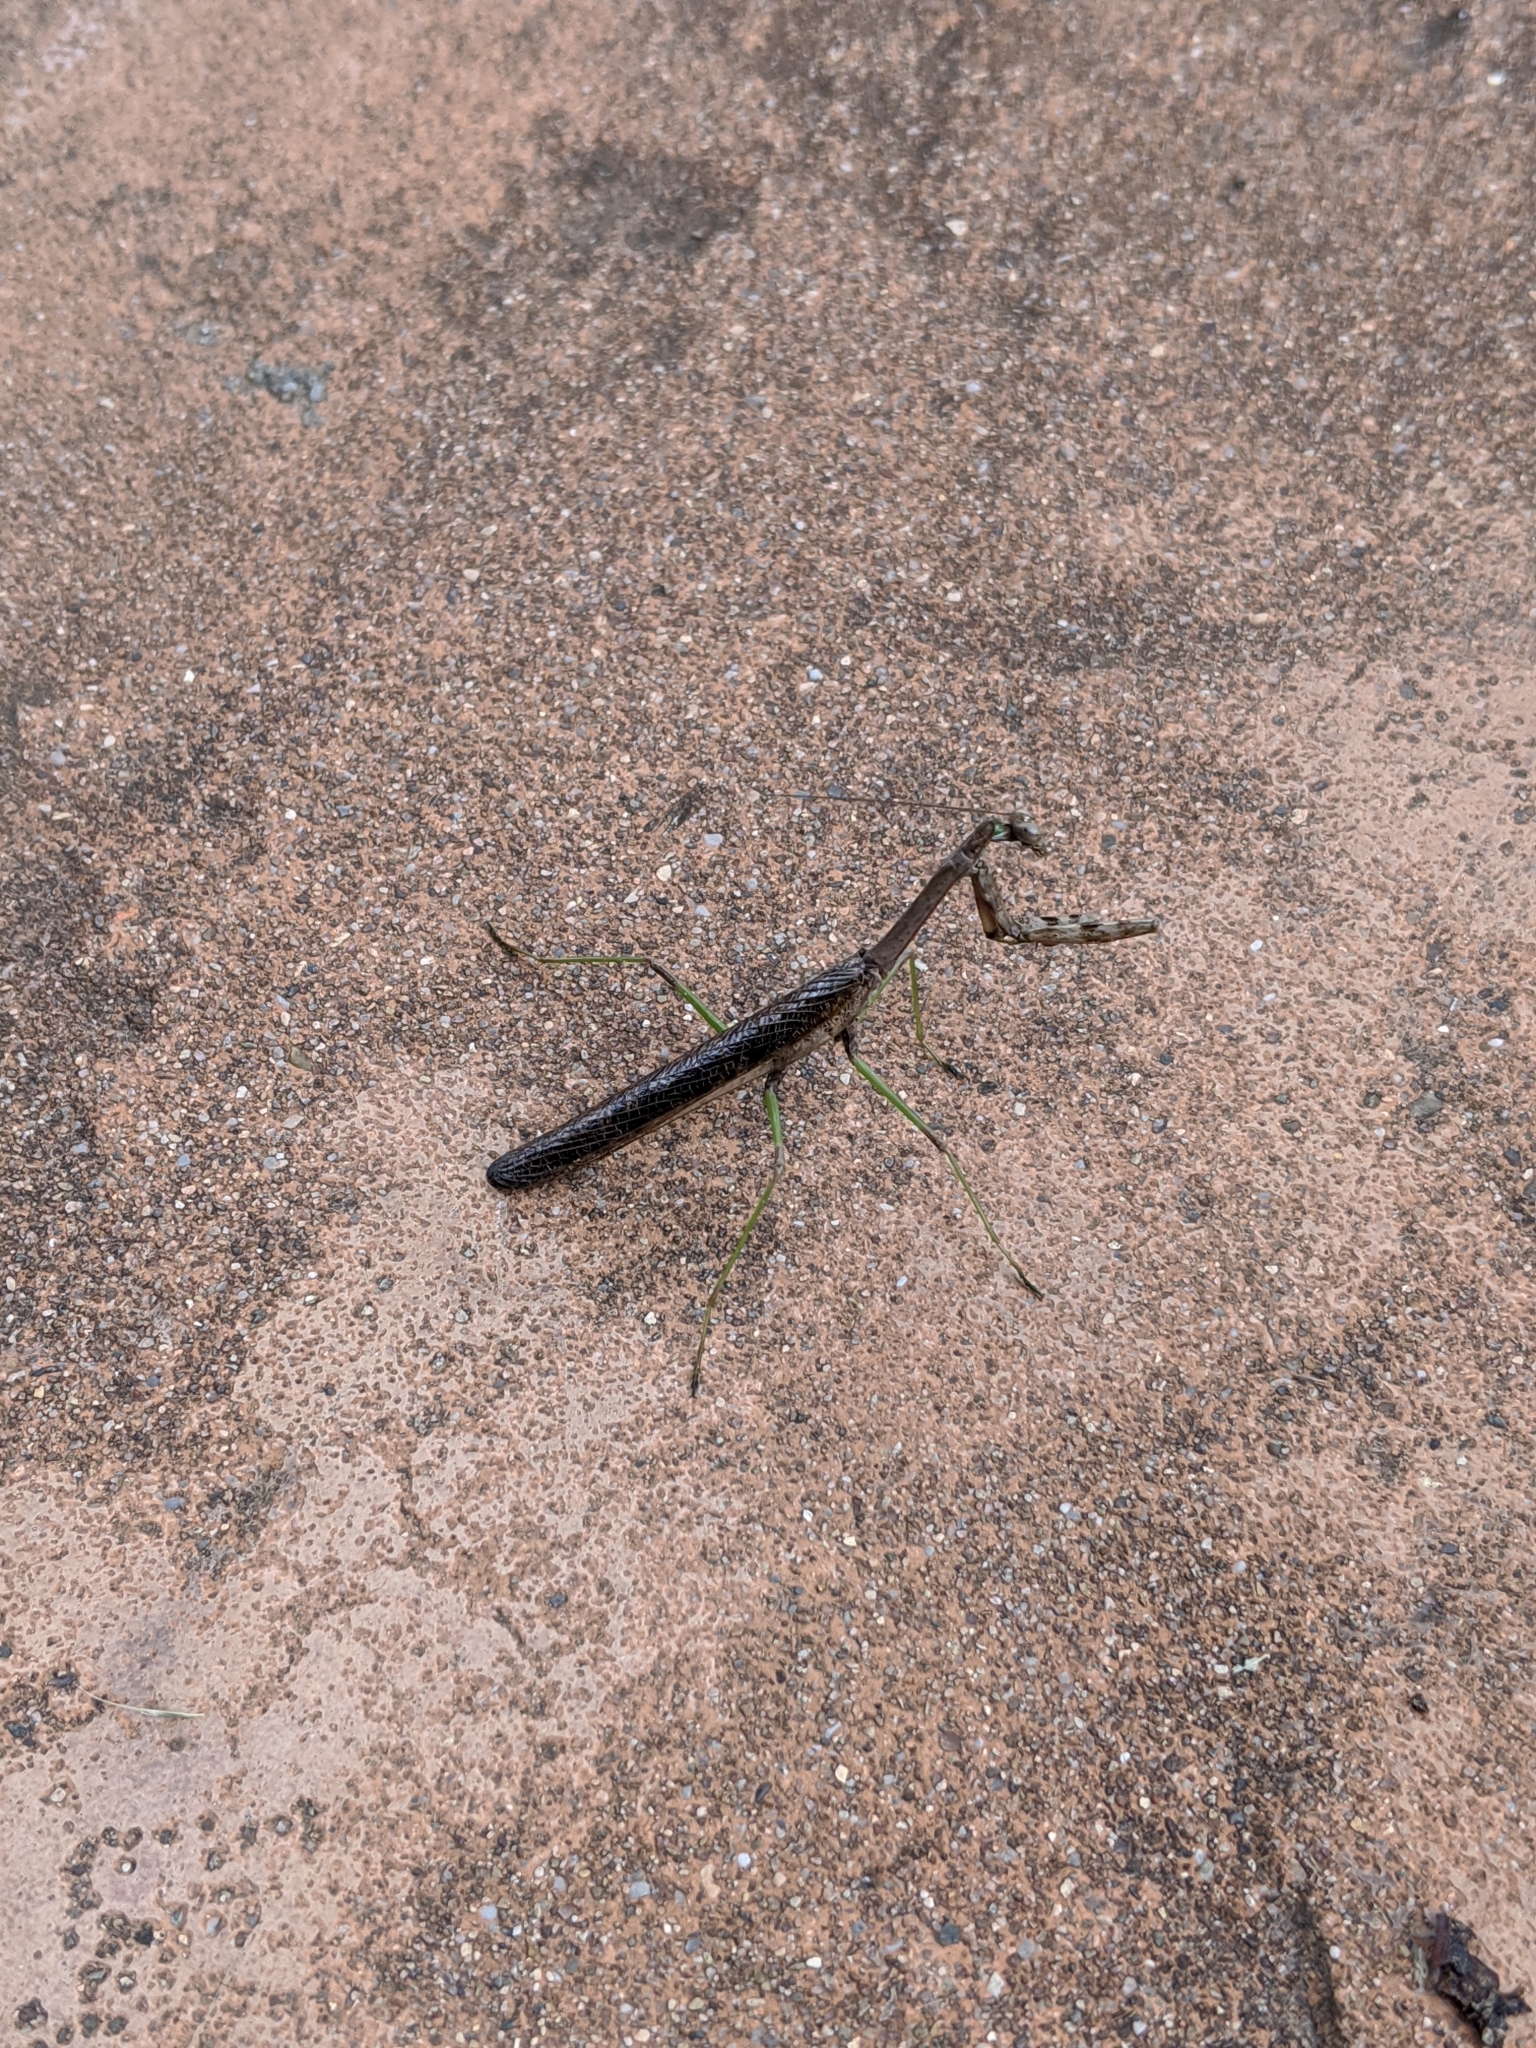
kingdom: Animalia
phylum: Arthropoda
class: Insecta
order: Mantodea
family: Mantidae
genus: Stagmomantis
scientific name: Stagmomantis carolina
